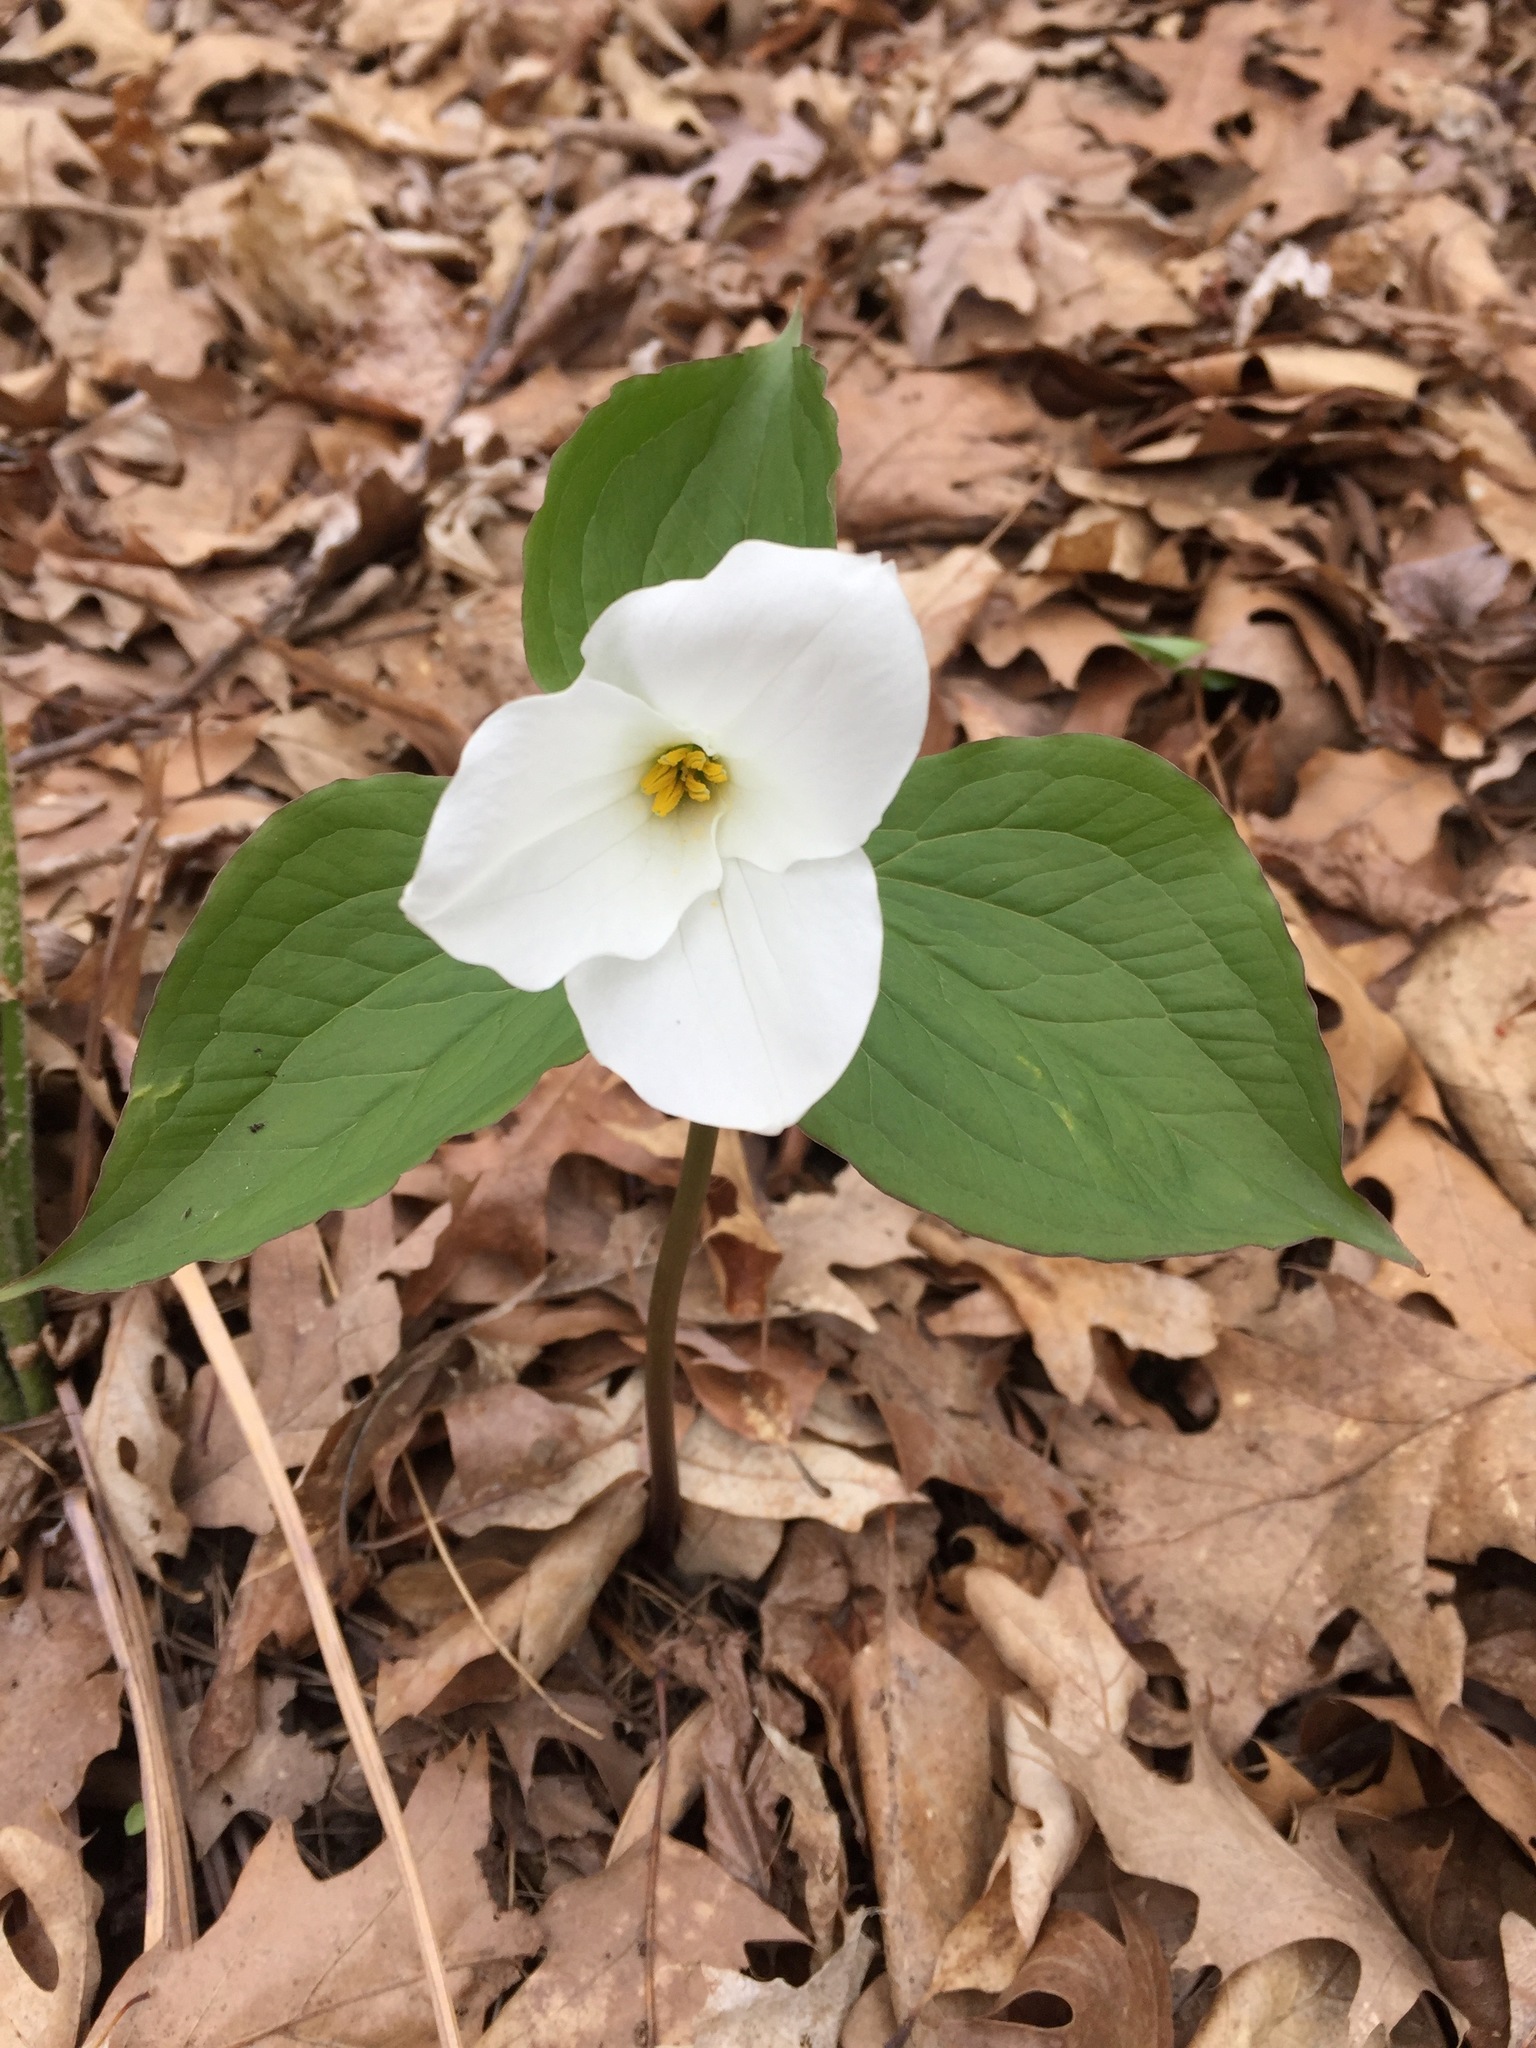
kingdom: Plantae
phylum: Tracheophyta
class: Liliopsida
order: Liliales
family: Melanthiaceae
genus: Trillium
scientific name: Trillium grandiflorum
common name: Great white trillium
